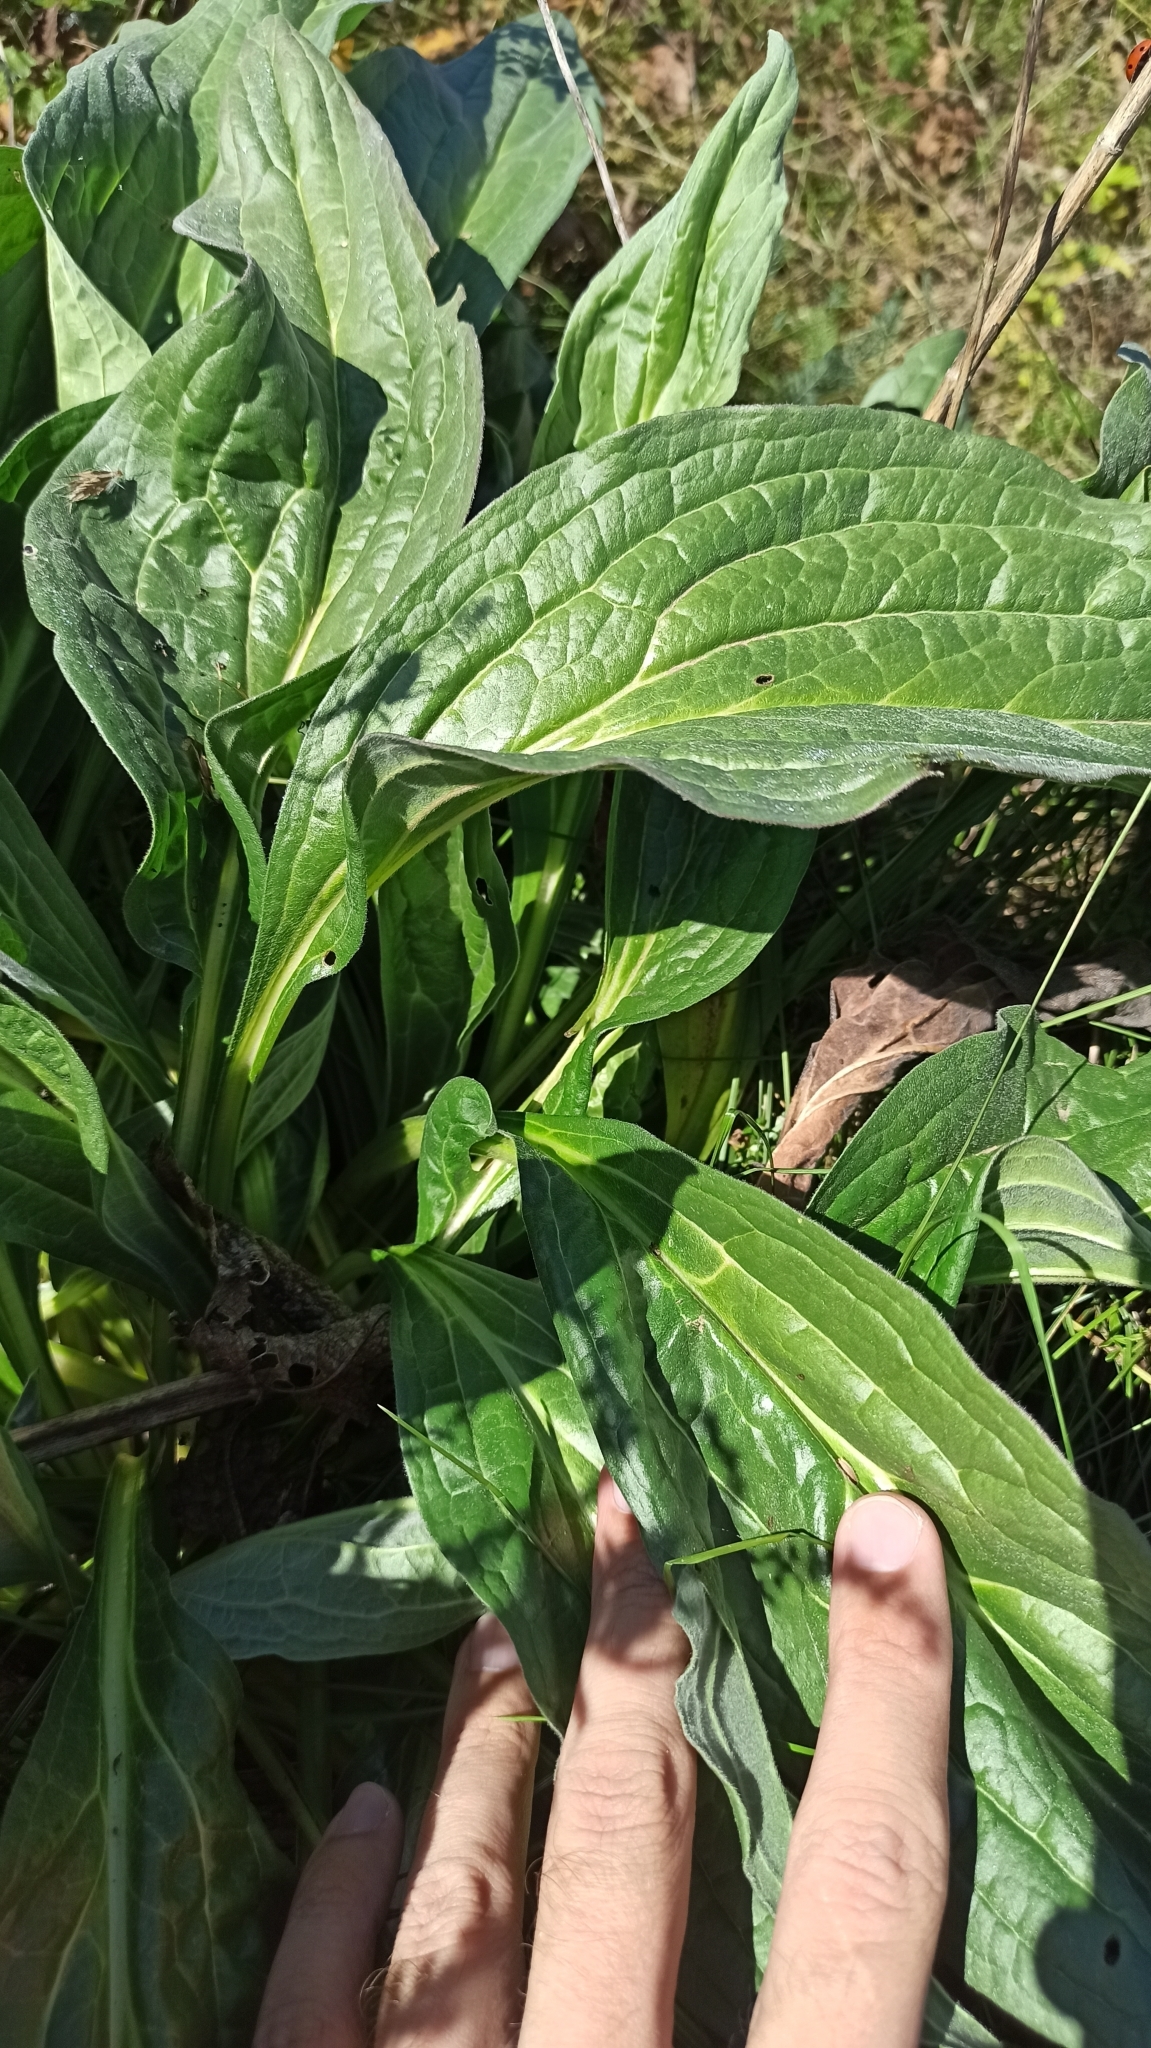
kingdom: Plantae
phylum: Tracheophyta
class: Magnoliopsida
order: Boraginales
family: Boraginaceae
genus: Cynoglossum
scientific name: Cynoglossum officinale
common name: Hound's-tongue
